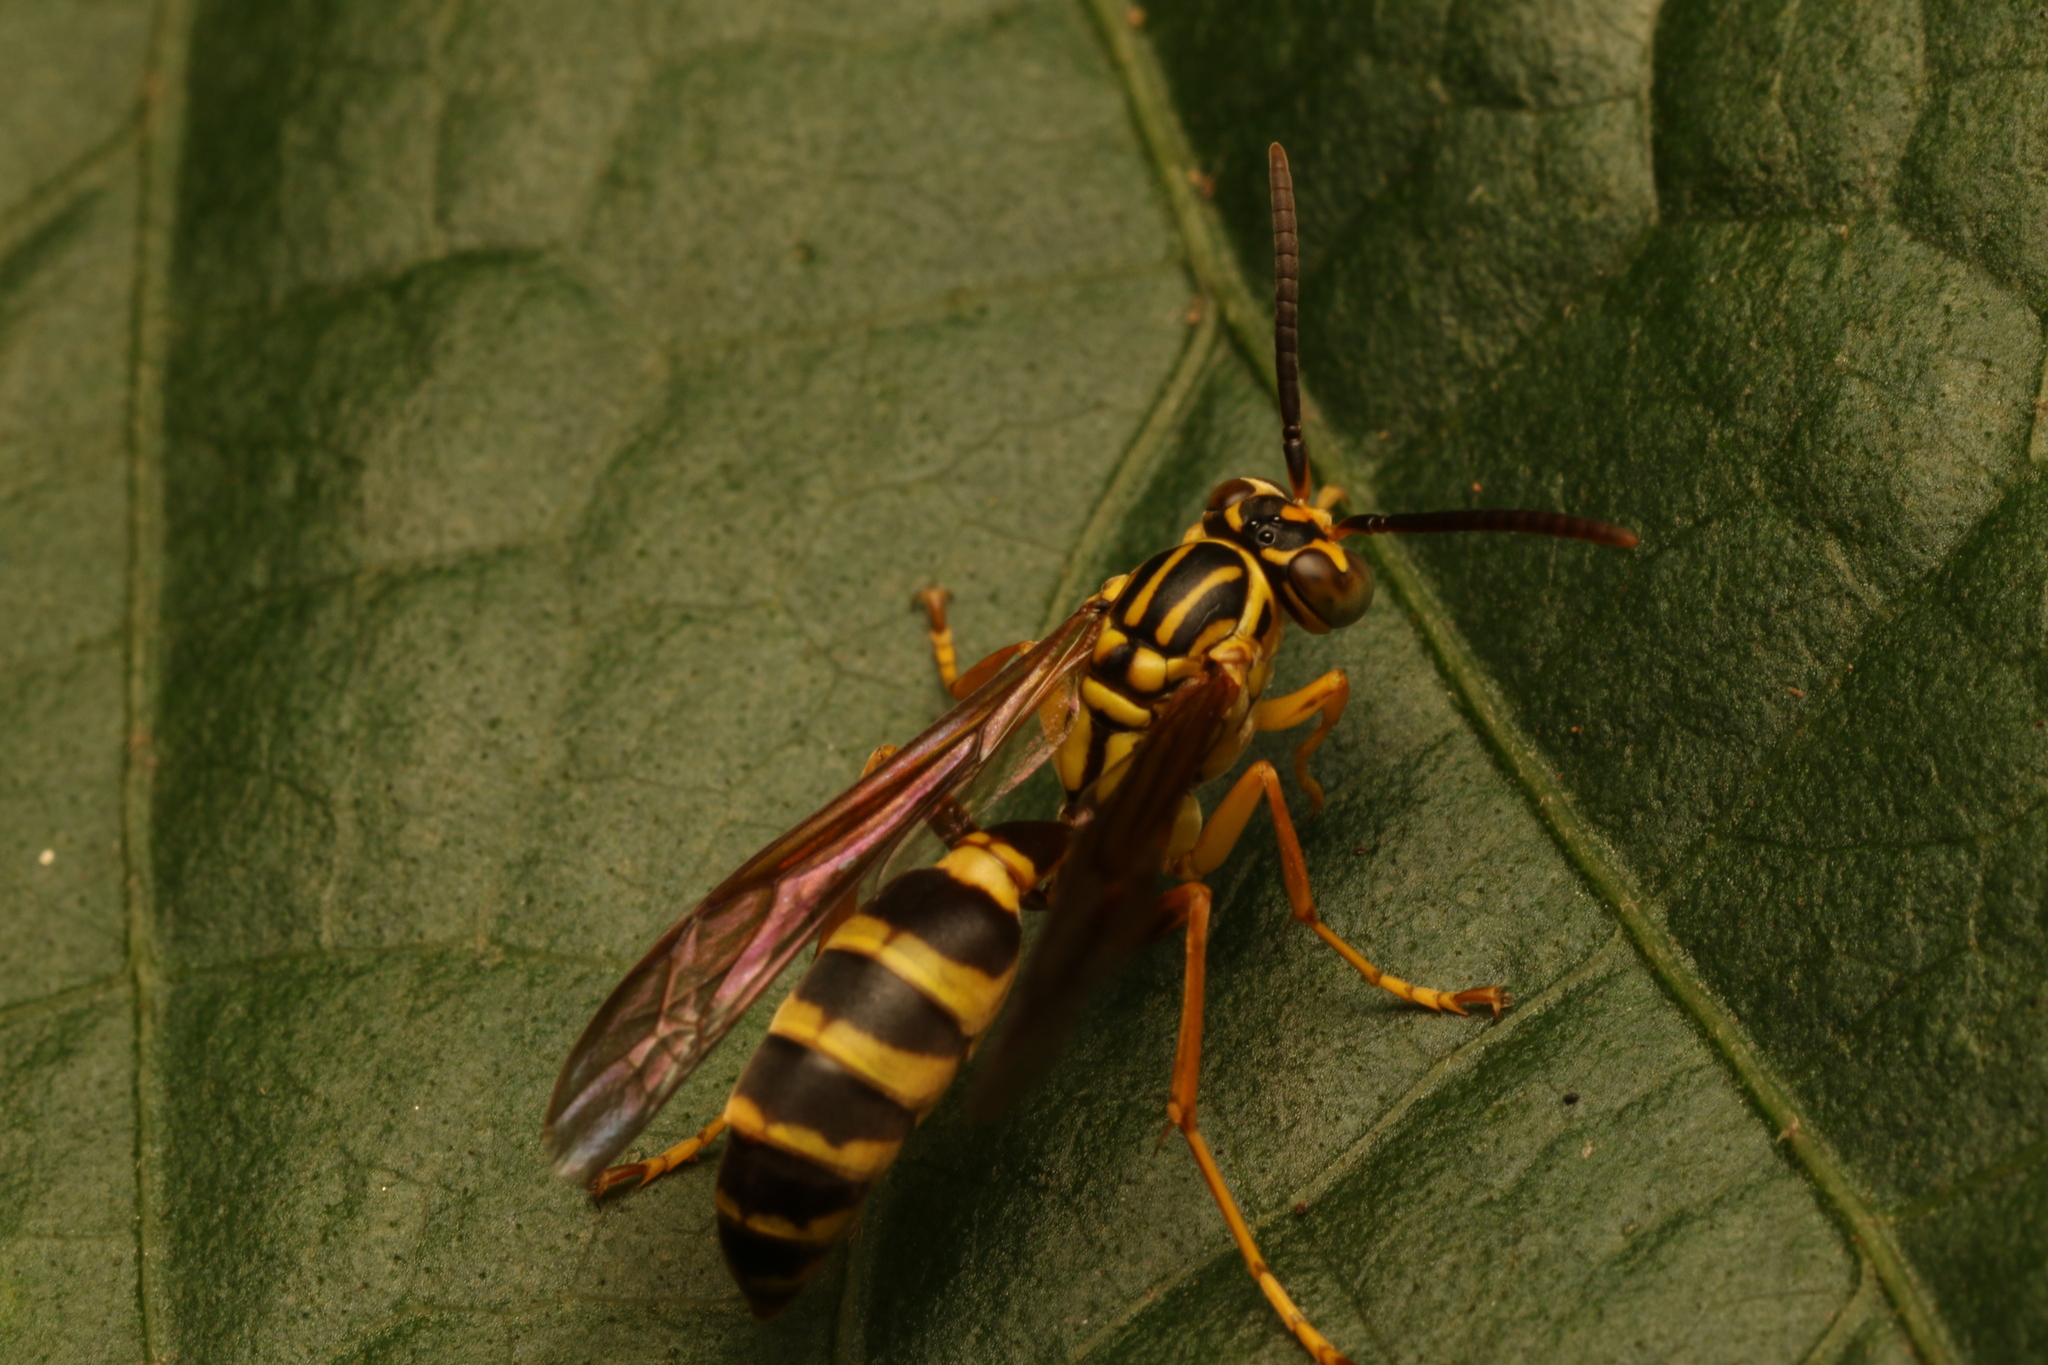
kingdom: Animalia
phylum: Arthropoda
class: Insecta
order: Hymenoptera
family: Vespidae
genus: Agelaia
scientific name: Agelaia multipicta
